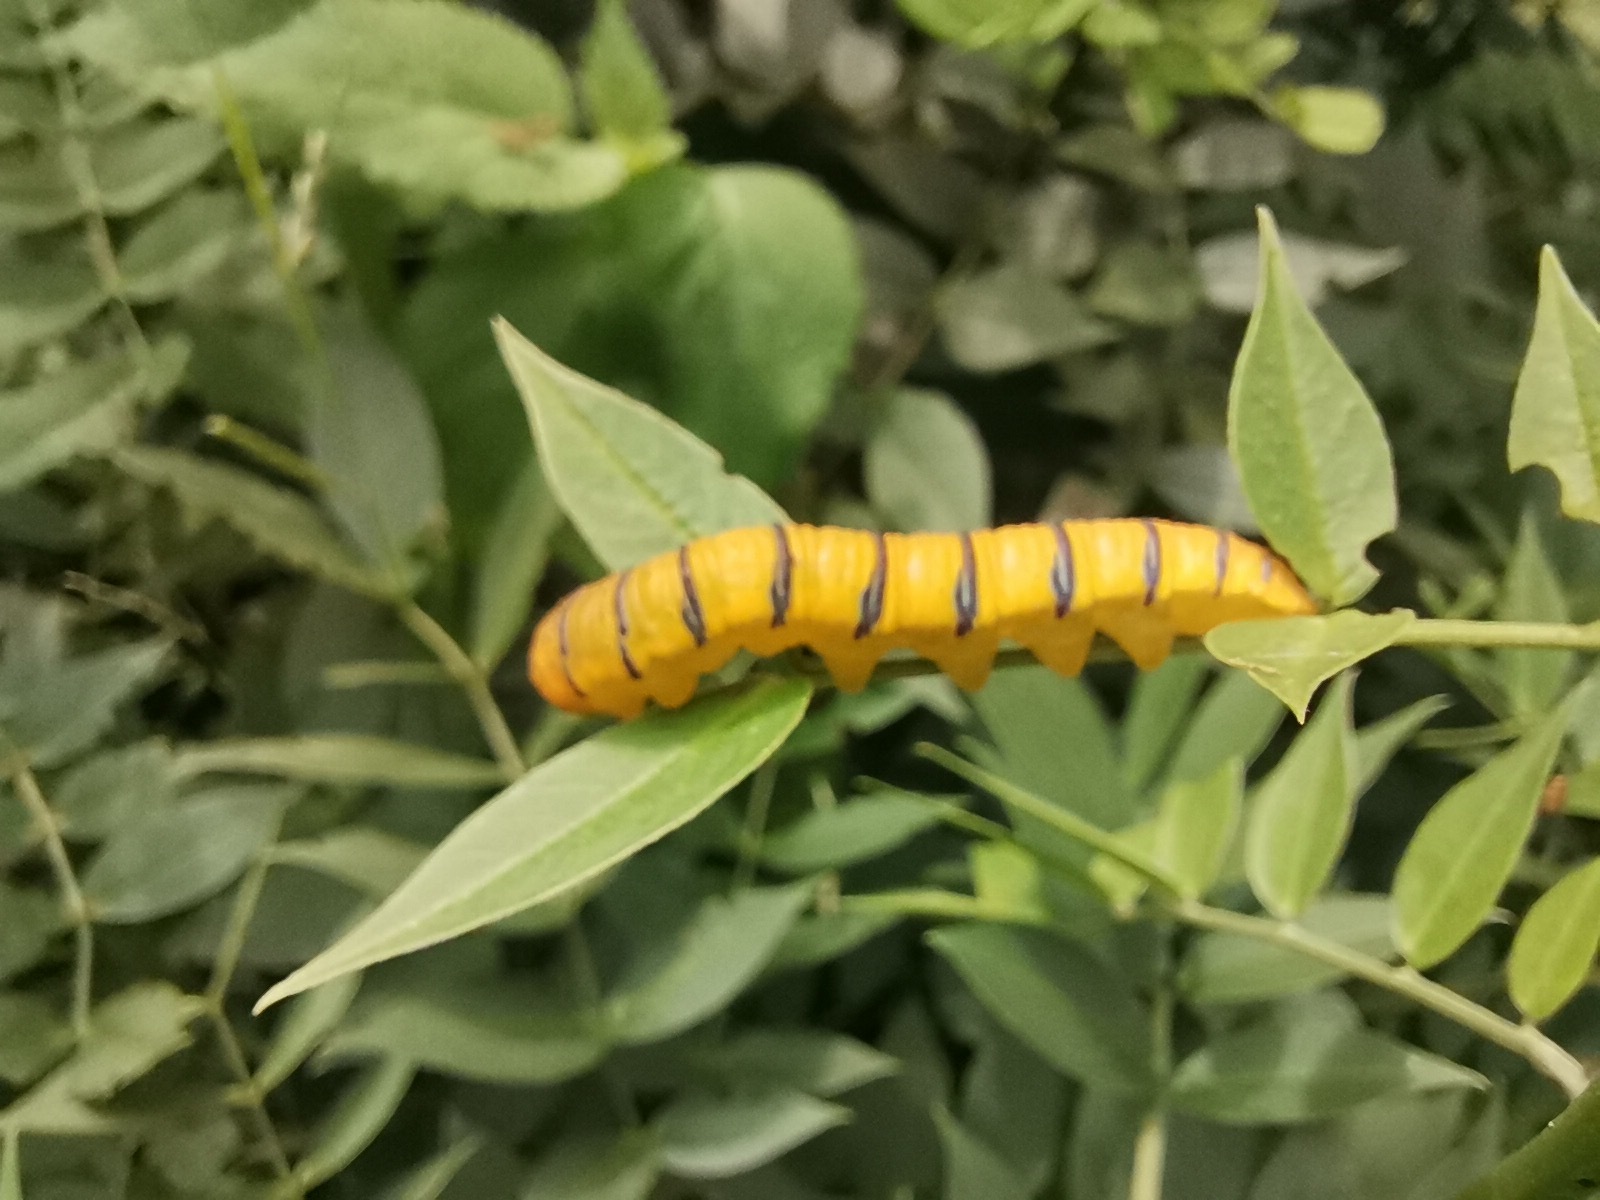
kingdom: Animalia
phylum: Arthropoda
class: Insecta
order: Lepidoptera
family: Pieridae
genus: Phoebis
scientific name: Phoebis marcellina
